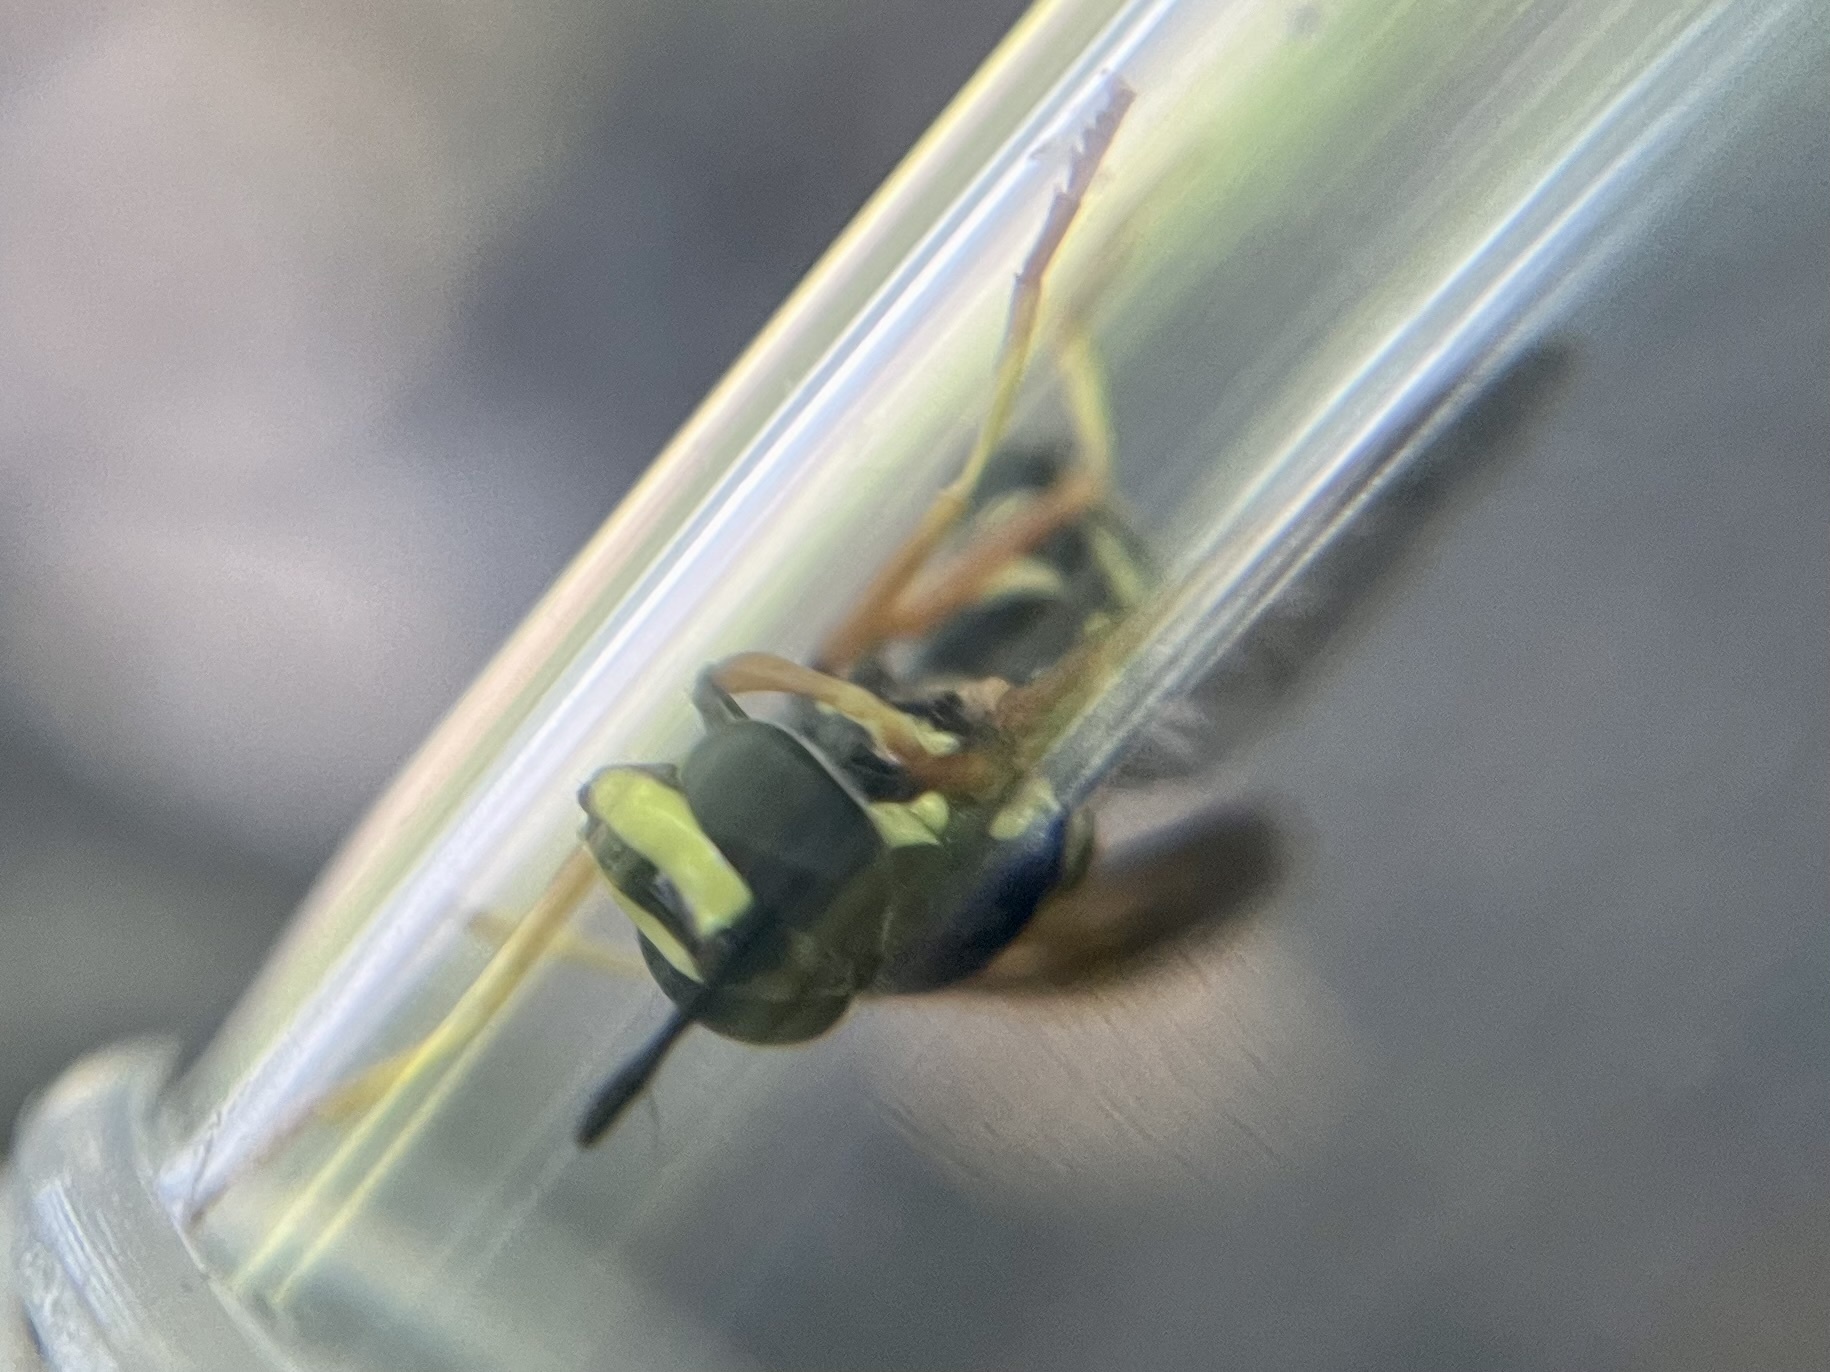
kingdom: Animalia
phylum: Arthropoda
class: Insecta
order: Diptera
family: Syrphidae
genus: Chrysotoxum
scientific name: Chrysotoxum festivum
